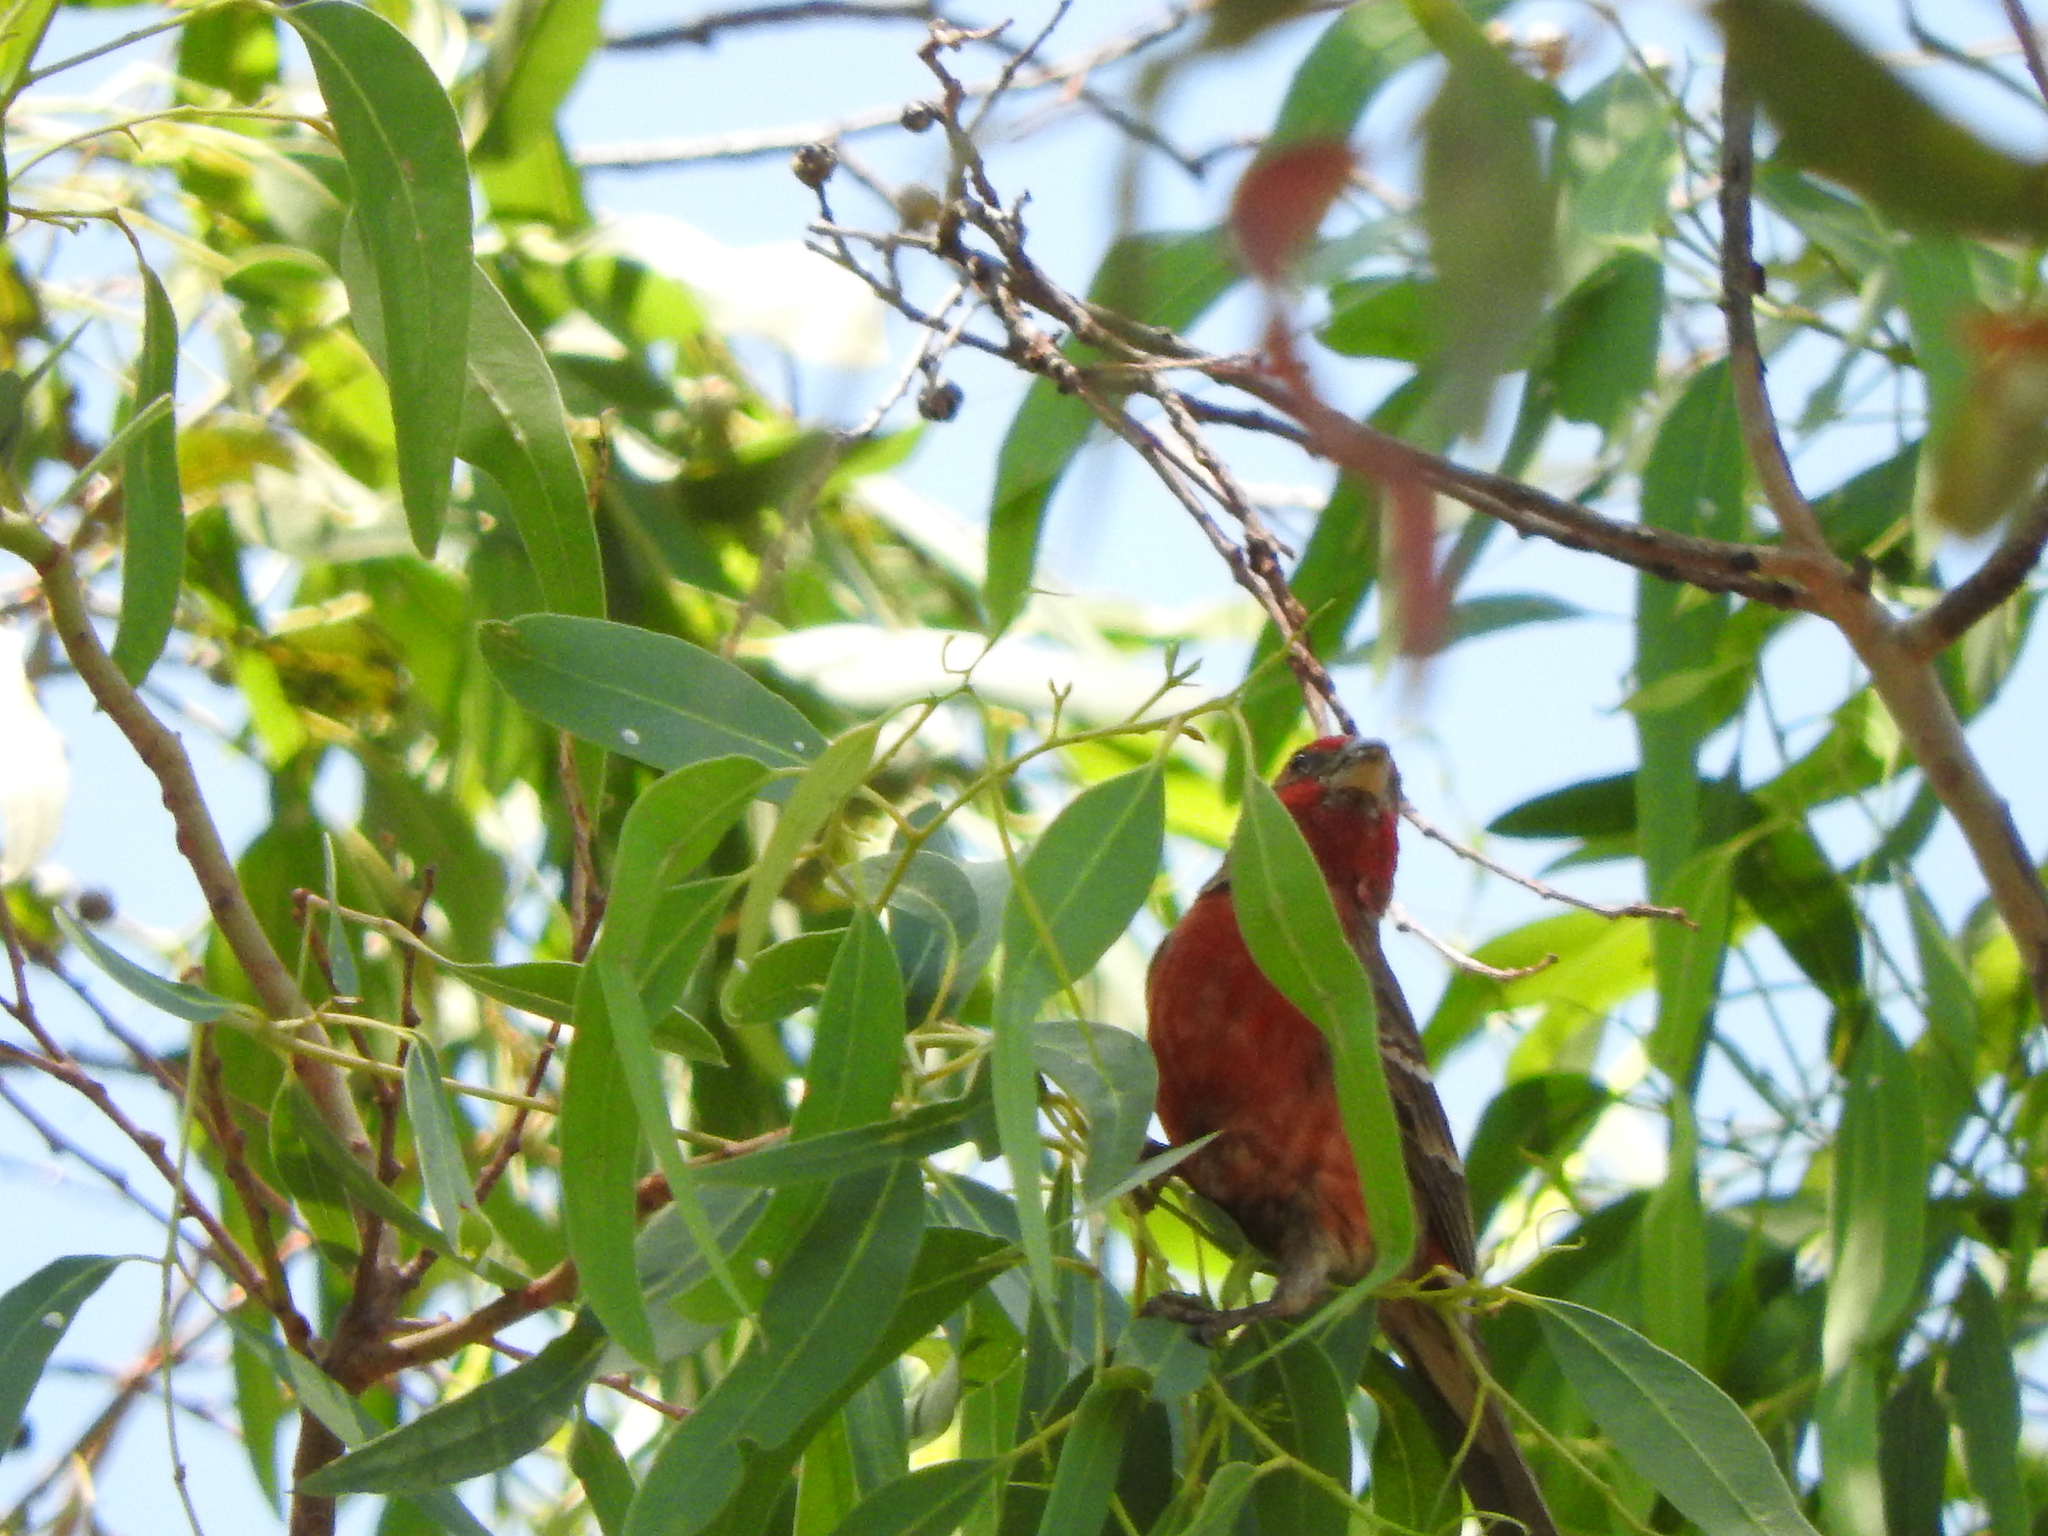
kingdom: Animalia
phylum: Chordata
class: Aves
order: Passeriformes
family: Fringillidae
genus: Haemorhous
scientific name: Haemorhous mexicanus
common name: House finch
